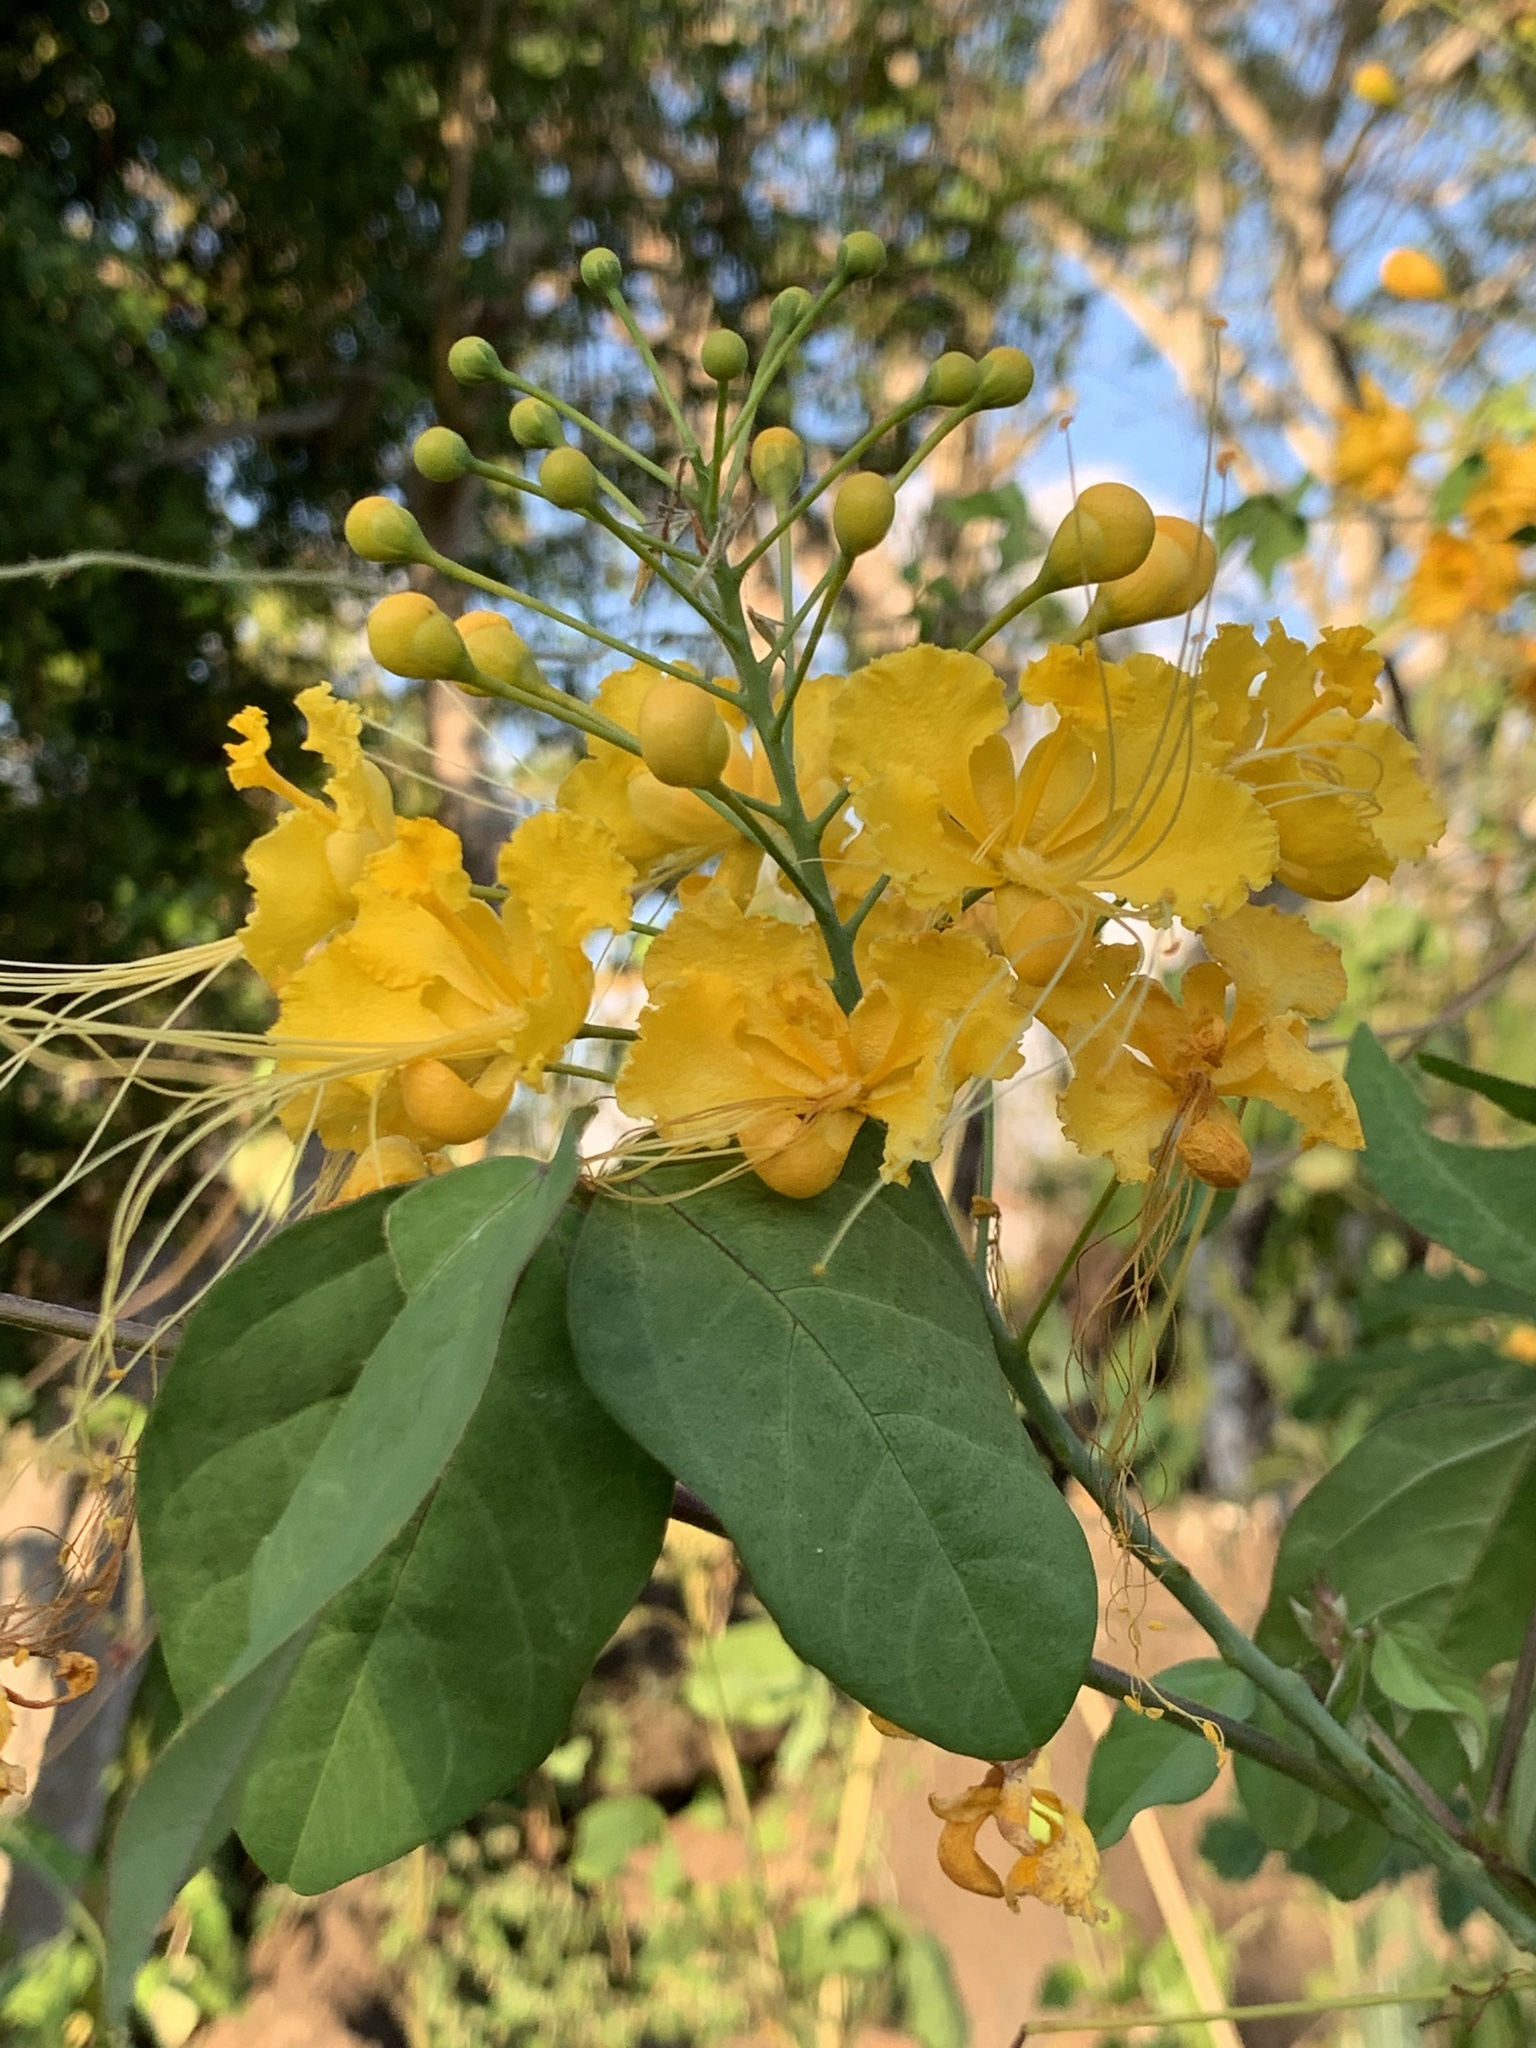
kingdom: Plantae
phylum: Tracheophyta
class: Magnoliopsida
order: Fabales
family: Fabaceae
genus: Caesalpinia
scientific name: Caesalpinia pulcherrima
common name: Pride-of-barbados
